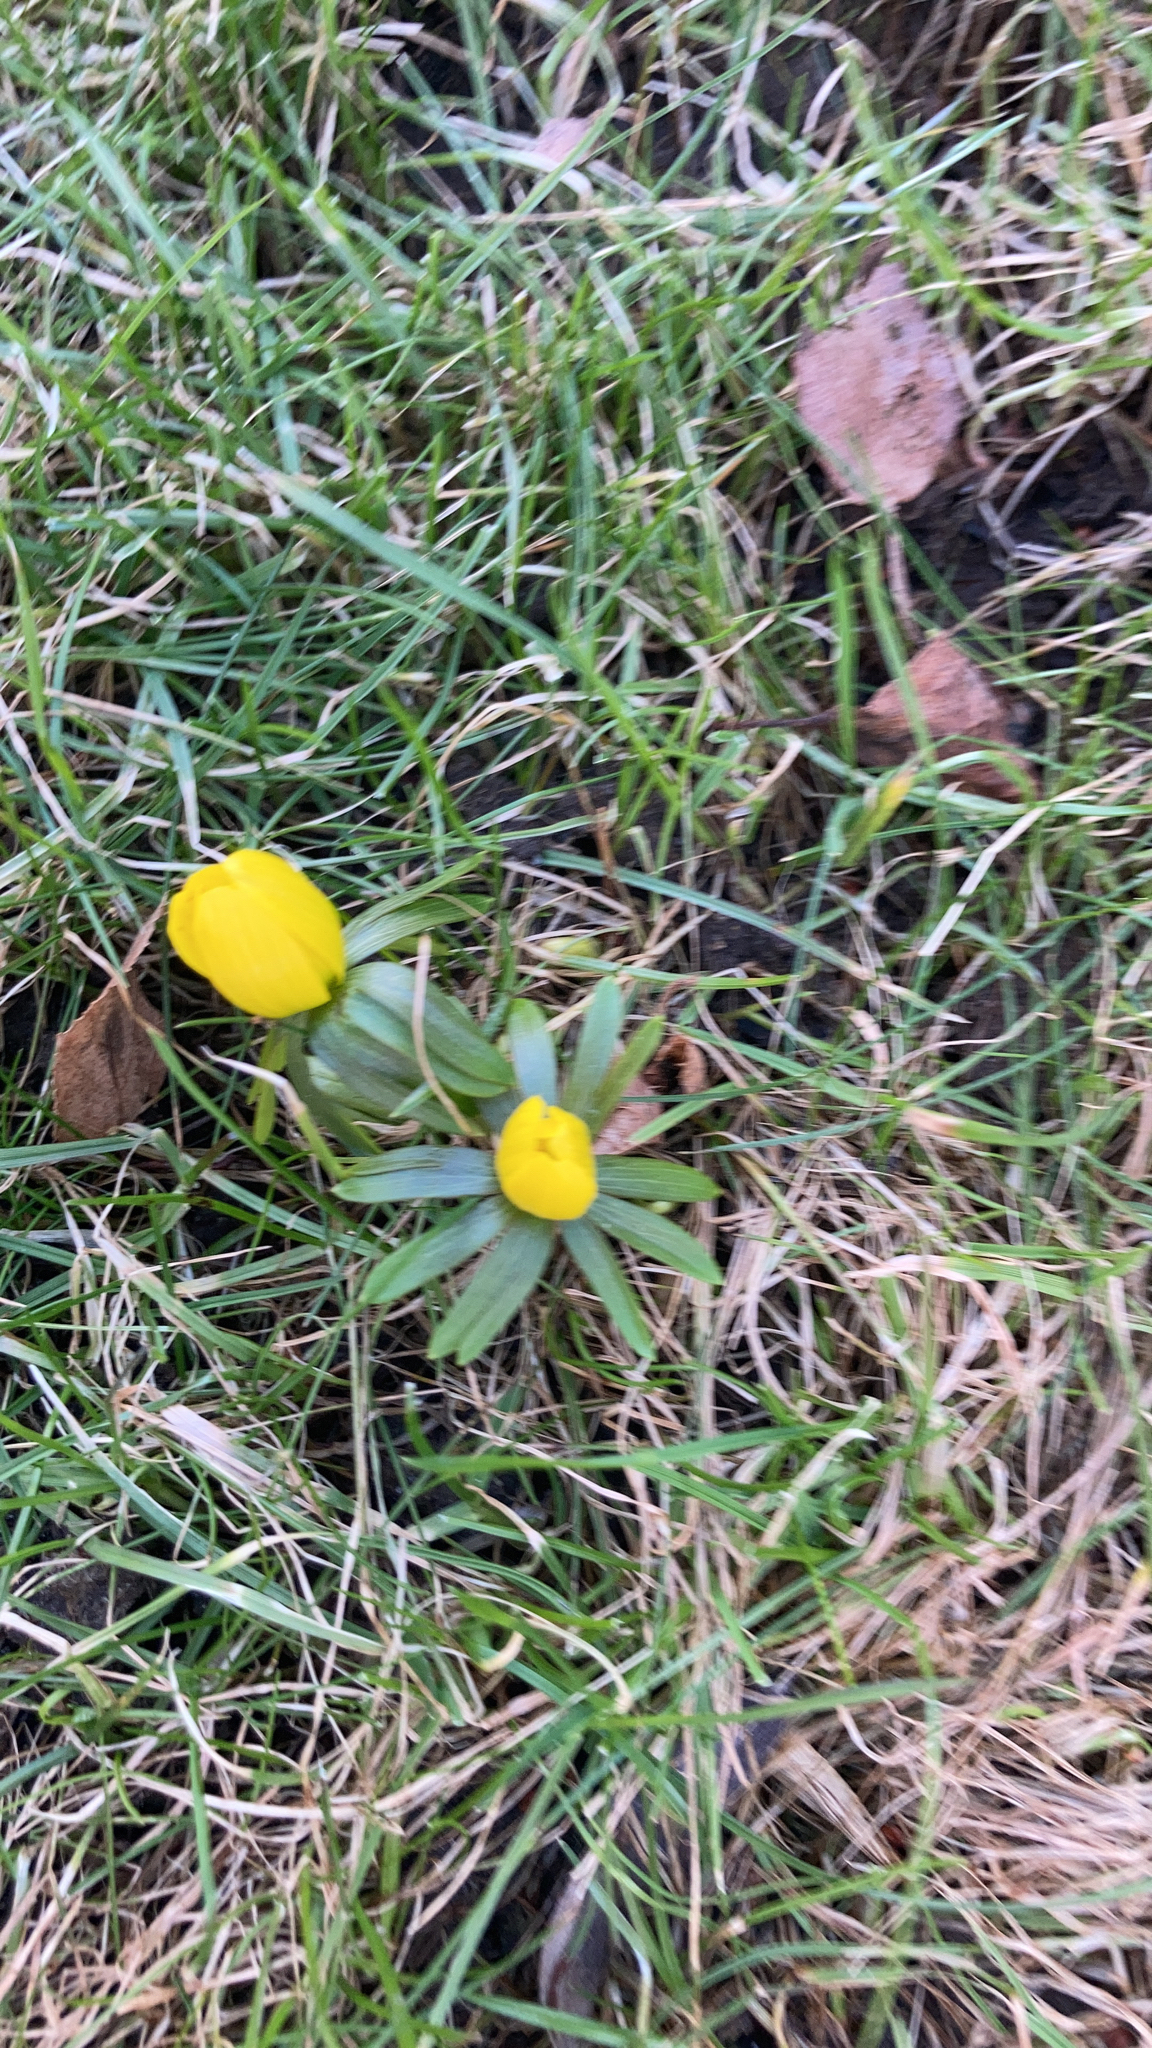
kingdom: Plantae
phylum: Tracheophyta
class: Magnoliopsida
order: Ranunculales
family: Ranunculaceae
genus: Eranthis
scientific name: Eranthis hyemalis
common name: Winter aconite
